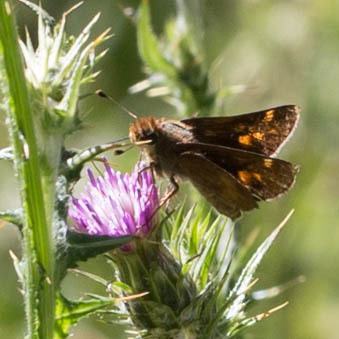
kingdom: Animalia
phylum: Arthropoda
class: Insecta
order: Lepidoptera
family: Hesperiidae
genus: Lon
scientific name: Lon melane
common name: Umber skipper
